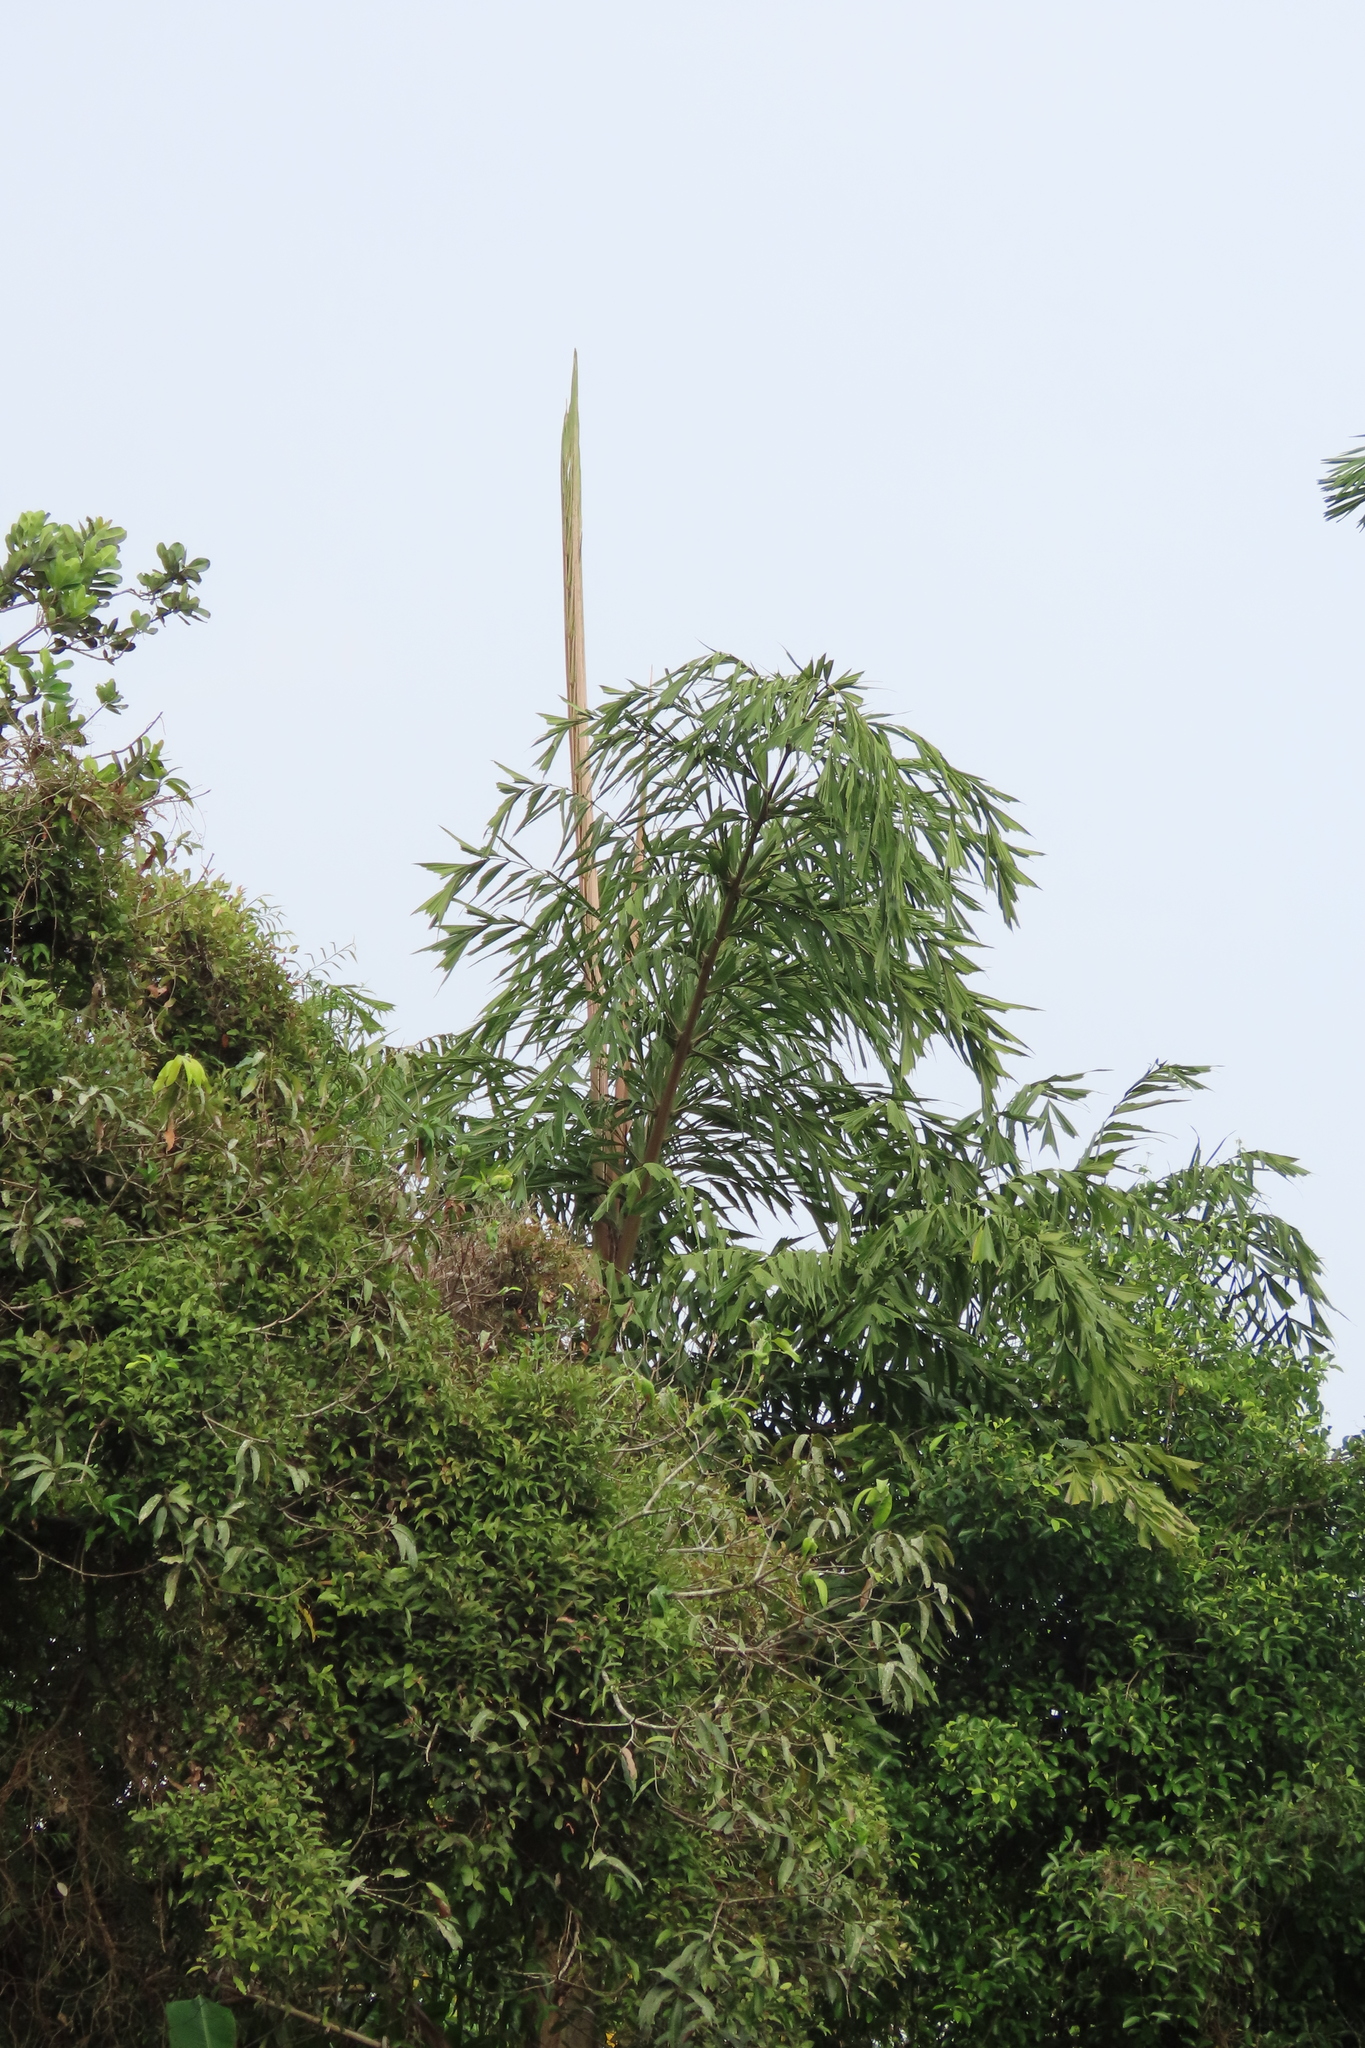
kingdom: Plantae
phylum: Tracheophyta
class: Liliopsida
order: Arecales
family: Arecaceae
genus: Caryota
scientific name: Caryota urens
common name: Jaggery palm
